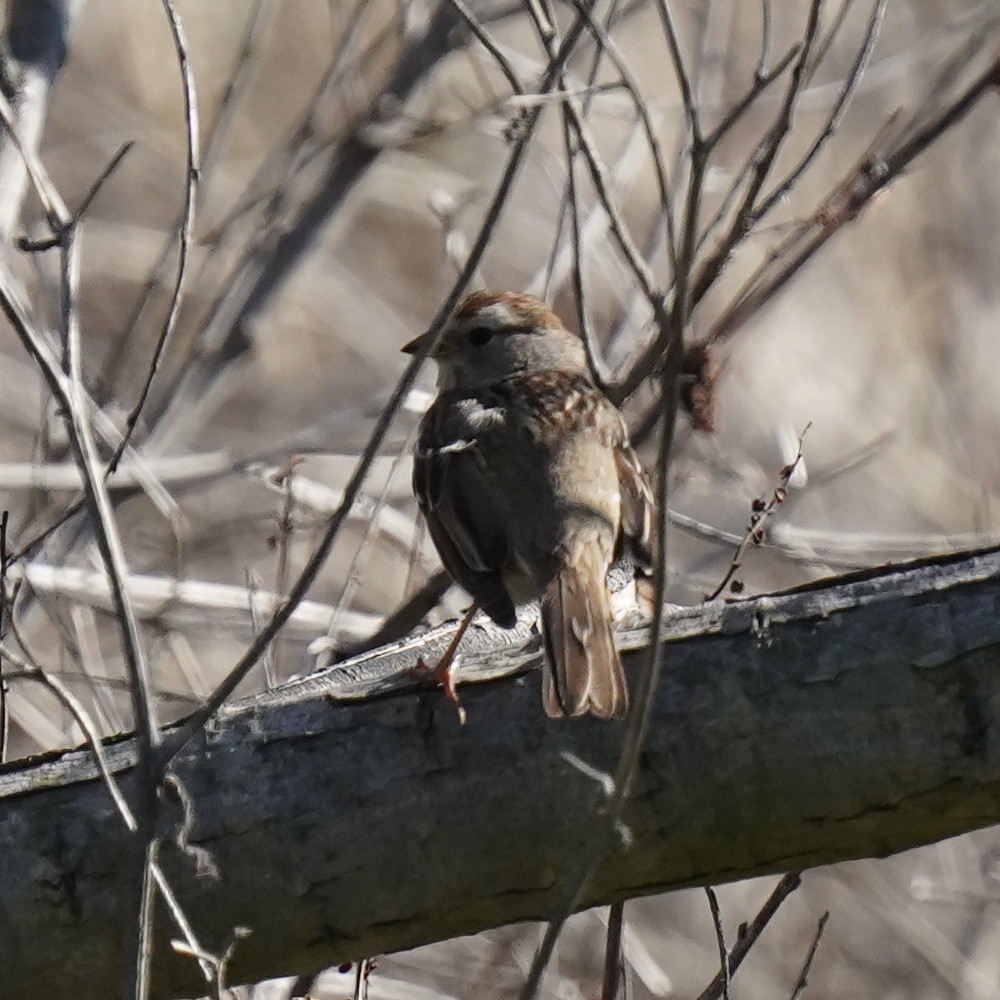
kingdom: Animalia
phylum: Chordata
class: Aves
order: Passeriformes
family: Passerellidae
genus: Zonotrichia
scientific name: Zonotrichia leucophrys
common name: White-crowned sparrow
